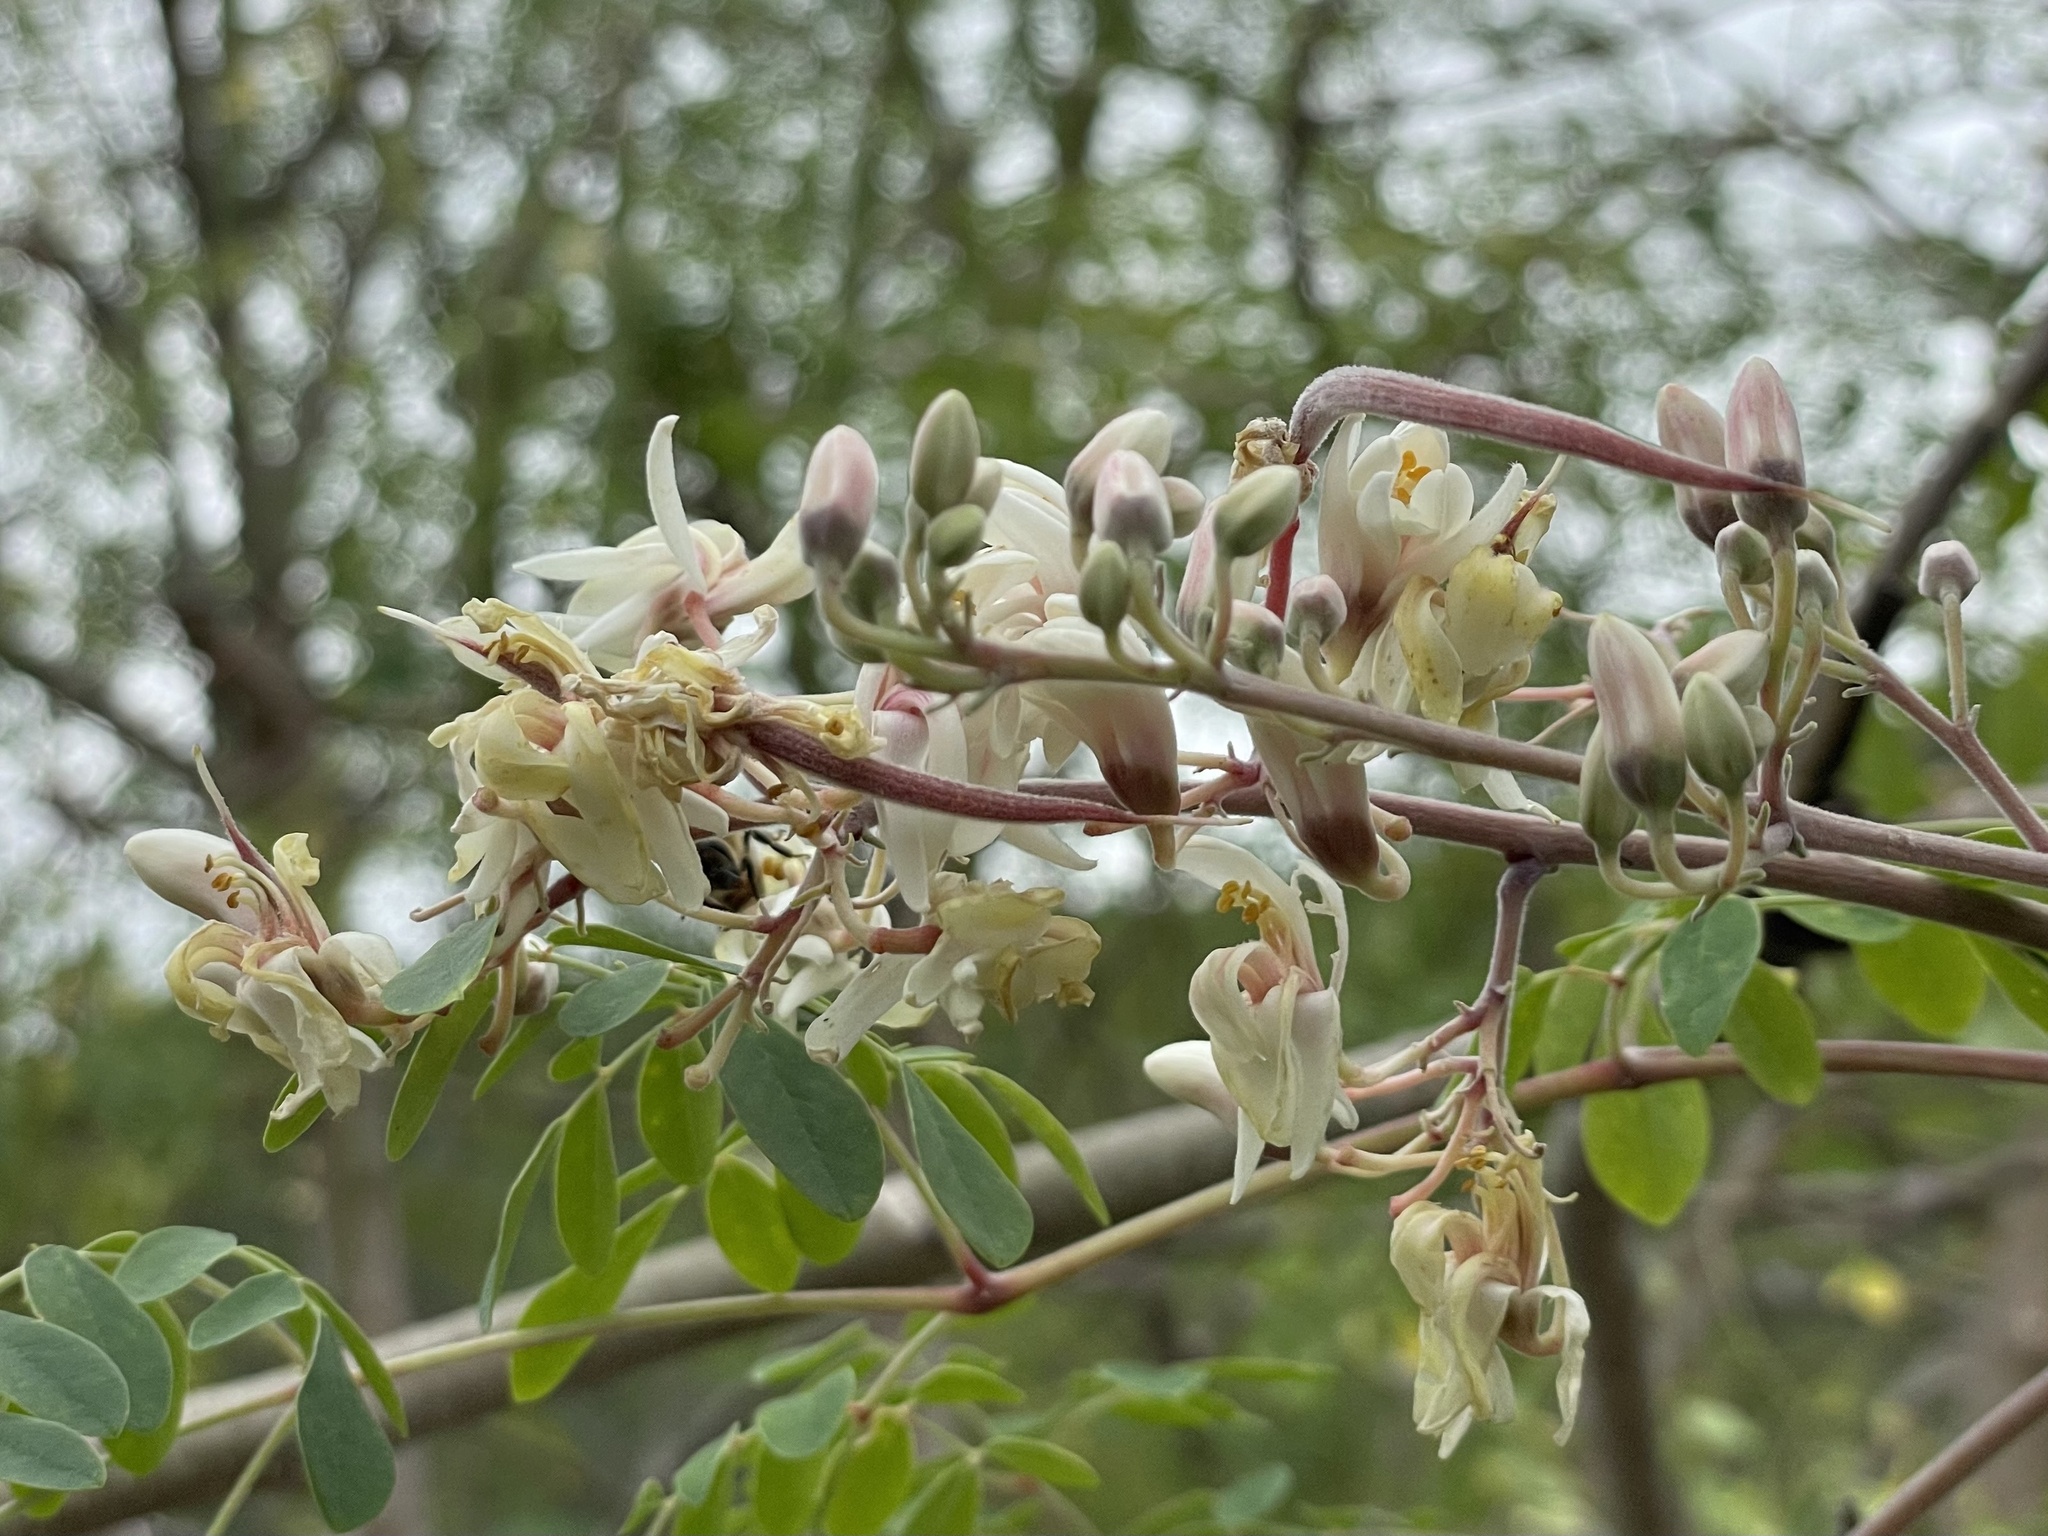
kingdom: Plantae
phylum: Tracheophyta
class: Magnoliopsida
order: Brassicales
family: Moringaceae
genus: Moringa
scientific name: Moringa oleifera
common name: Horseradish-tree
